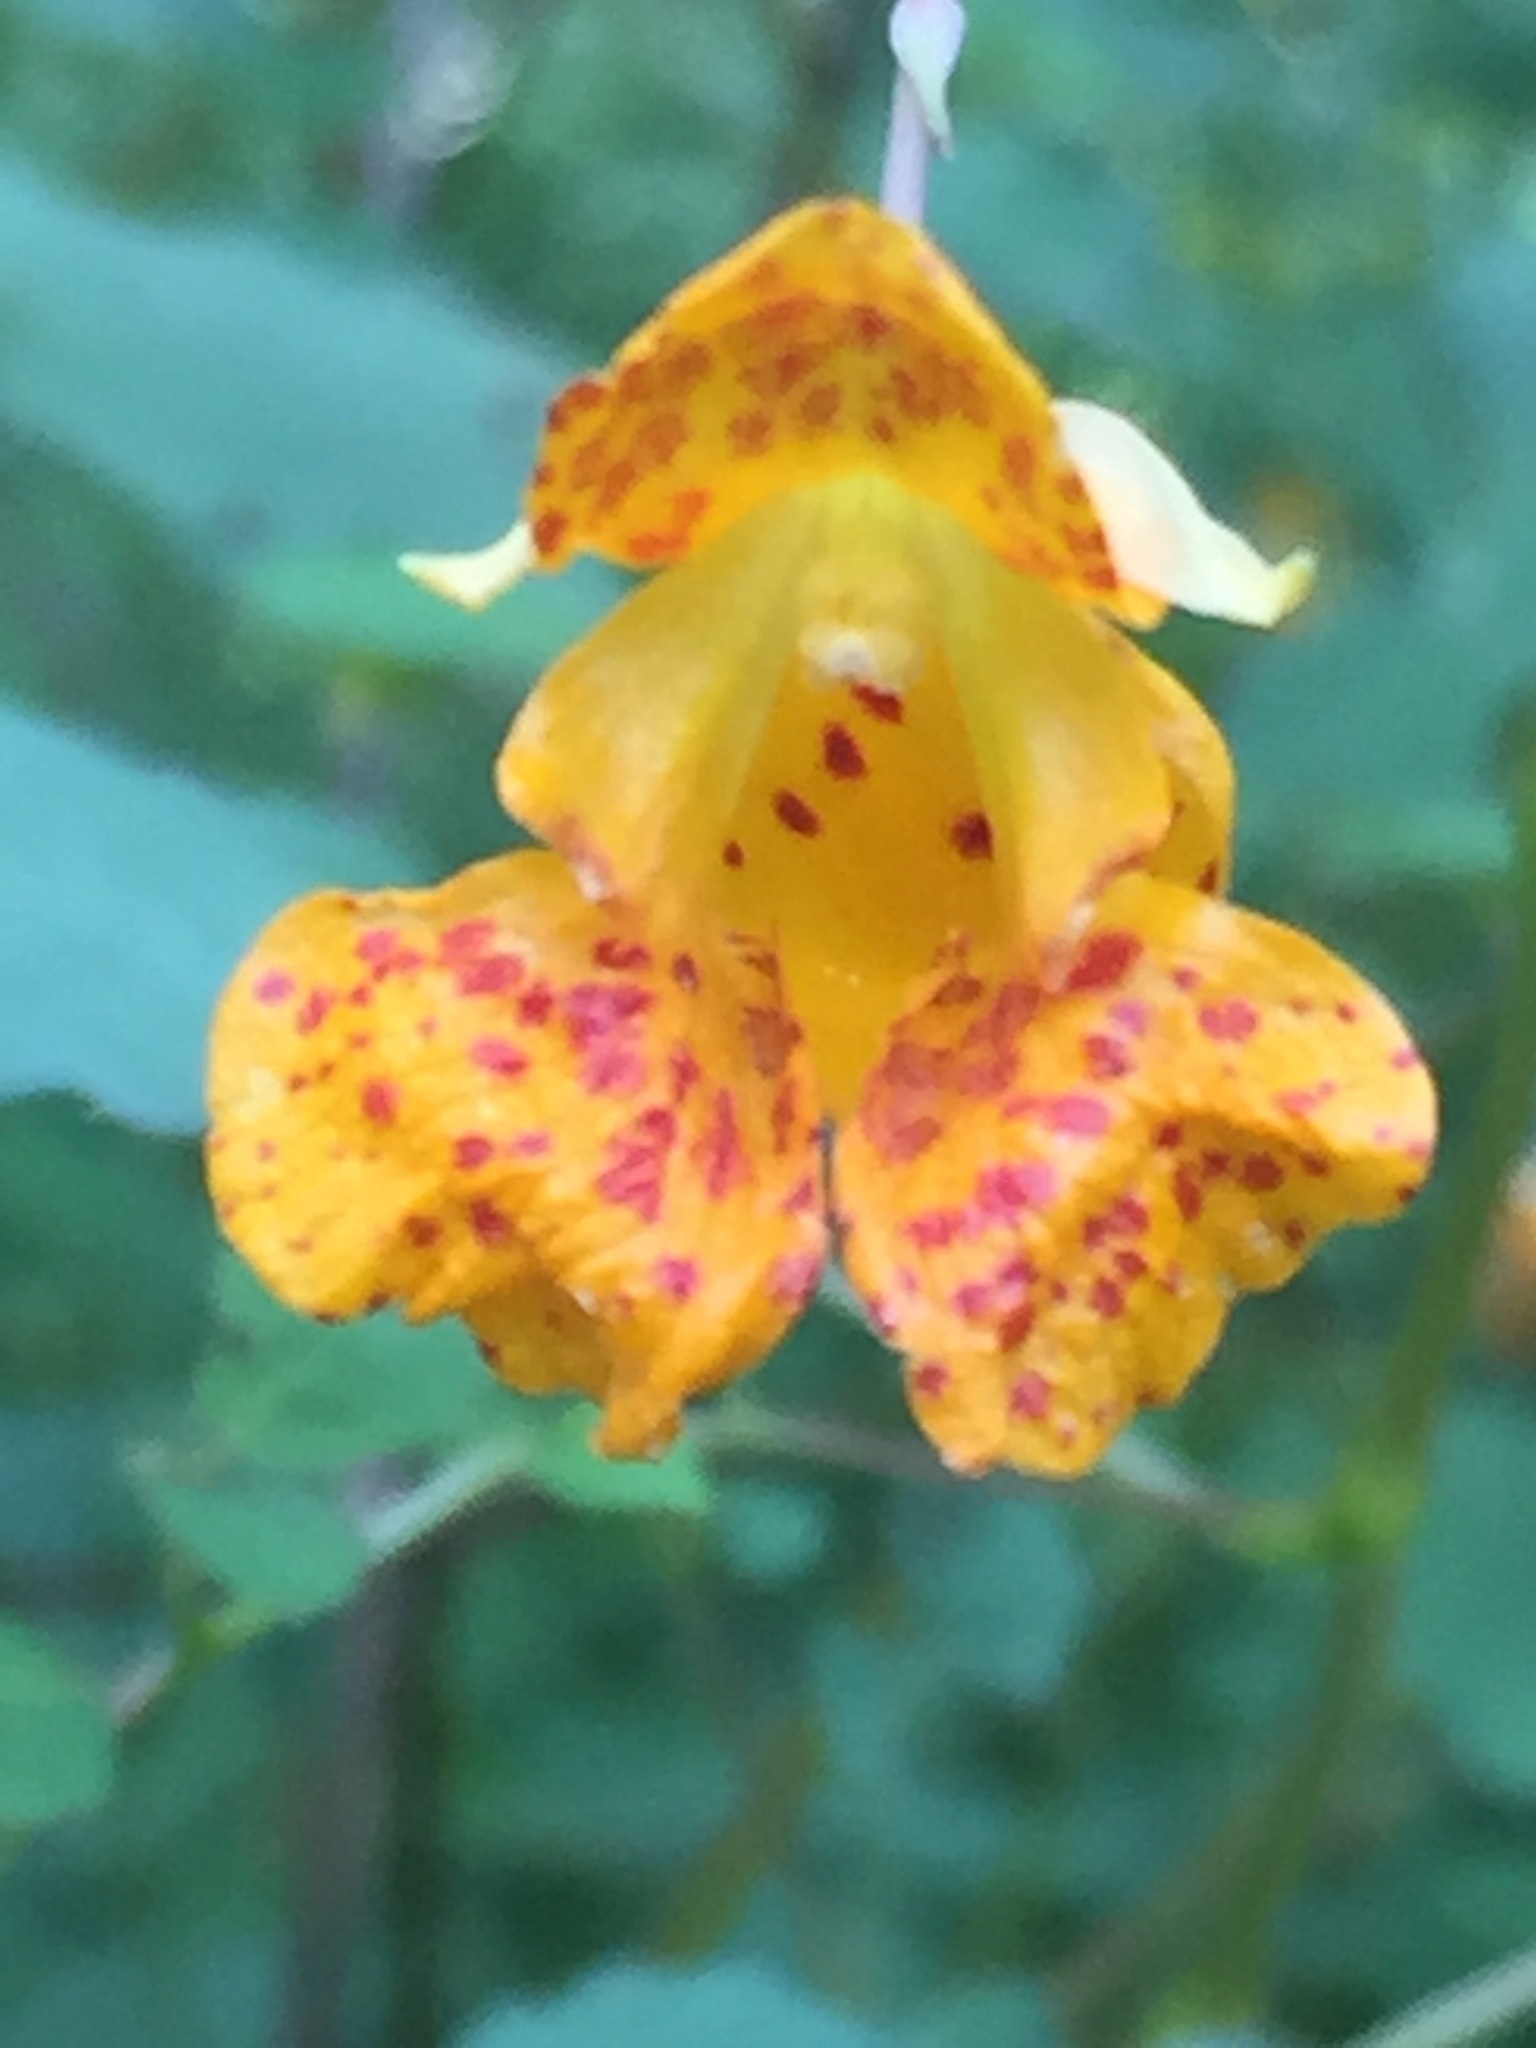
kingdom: Plantae
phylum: Tracheophyta
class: Magnoliopsida
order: Ericales
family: Balsaminaceae
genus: Impatiens
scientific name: Impatiens capensis
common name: Orange balsam
